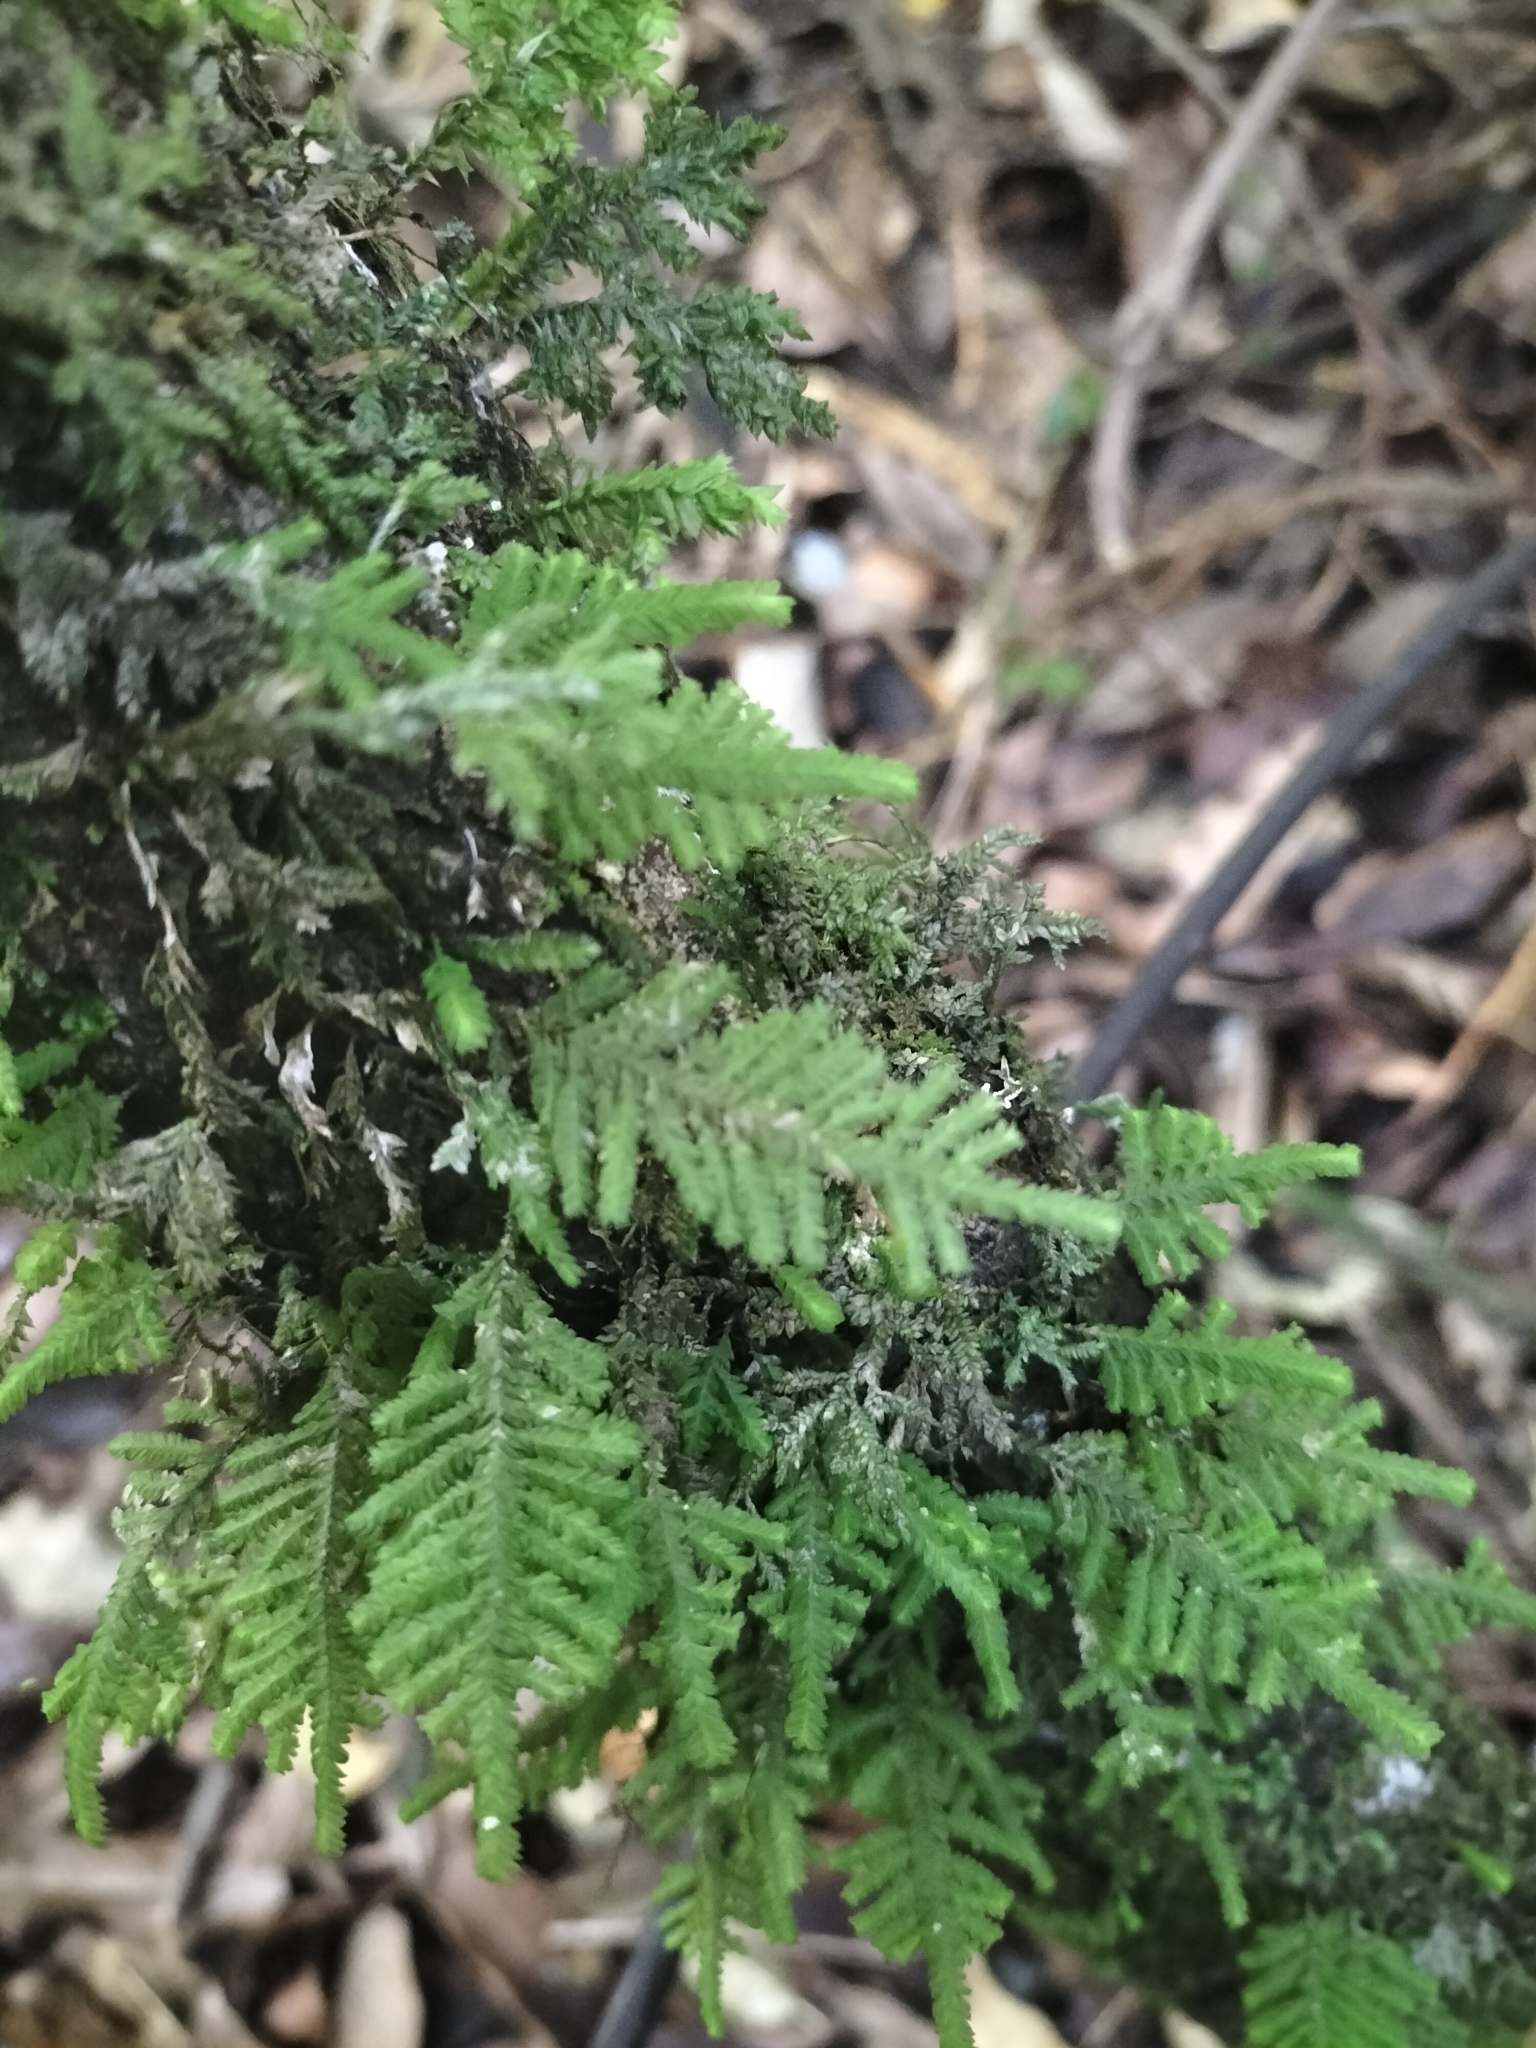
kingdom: Plantae
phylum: Bryophyta
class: Bryopsida
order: Hypopterygiales
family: Hypopterygiaceae
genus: Lopidium
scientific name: Lopidium concinnum
